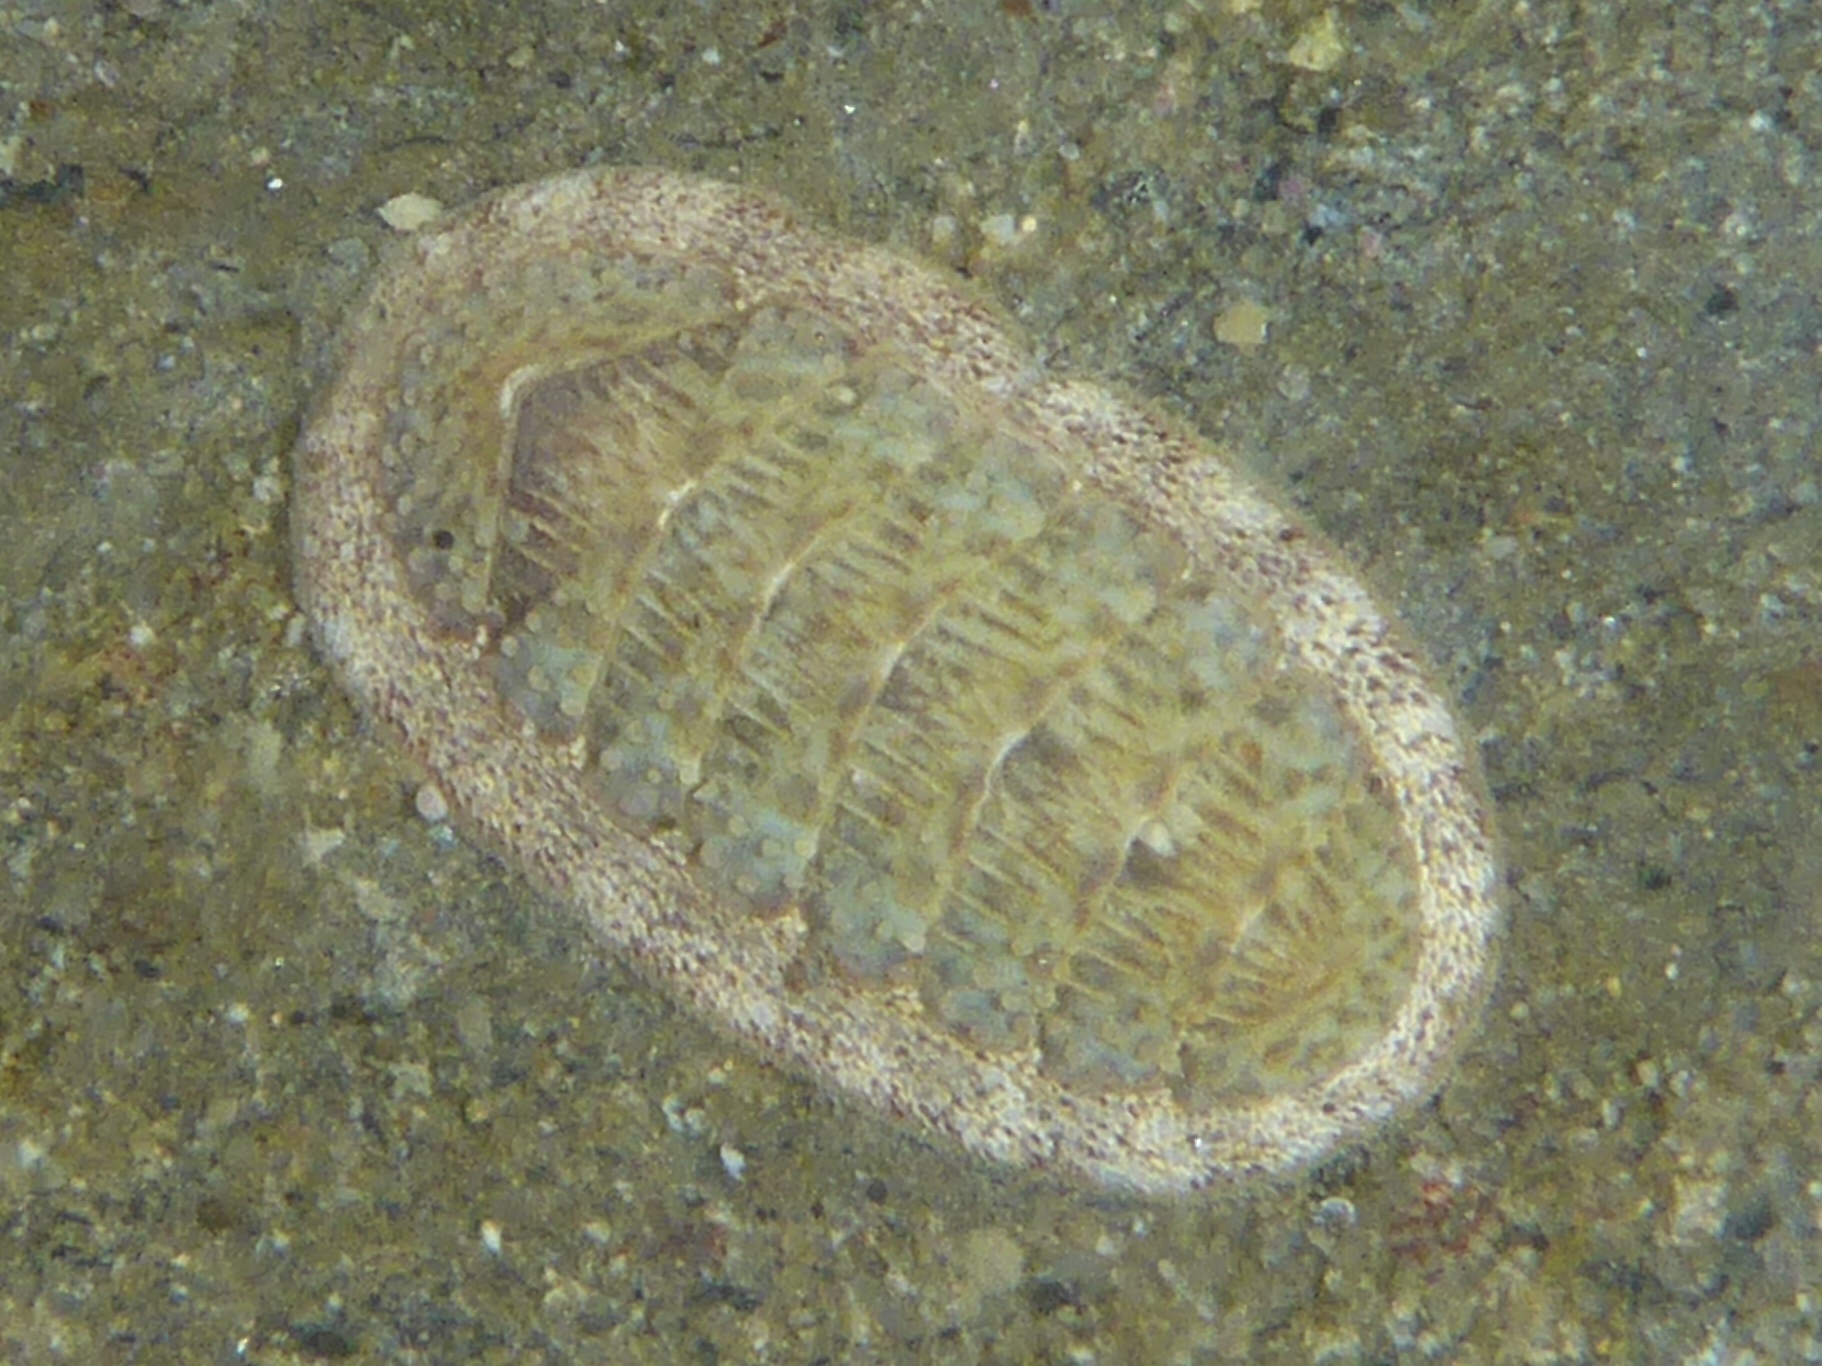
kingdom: Animalia
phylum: Mollusca
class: Polyplacophora
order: Chitonida
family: Ischnochitonidae
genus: Lepidozona
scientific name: Lepidozona cooperi
